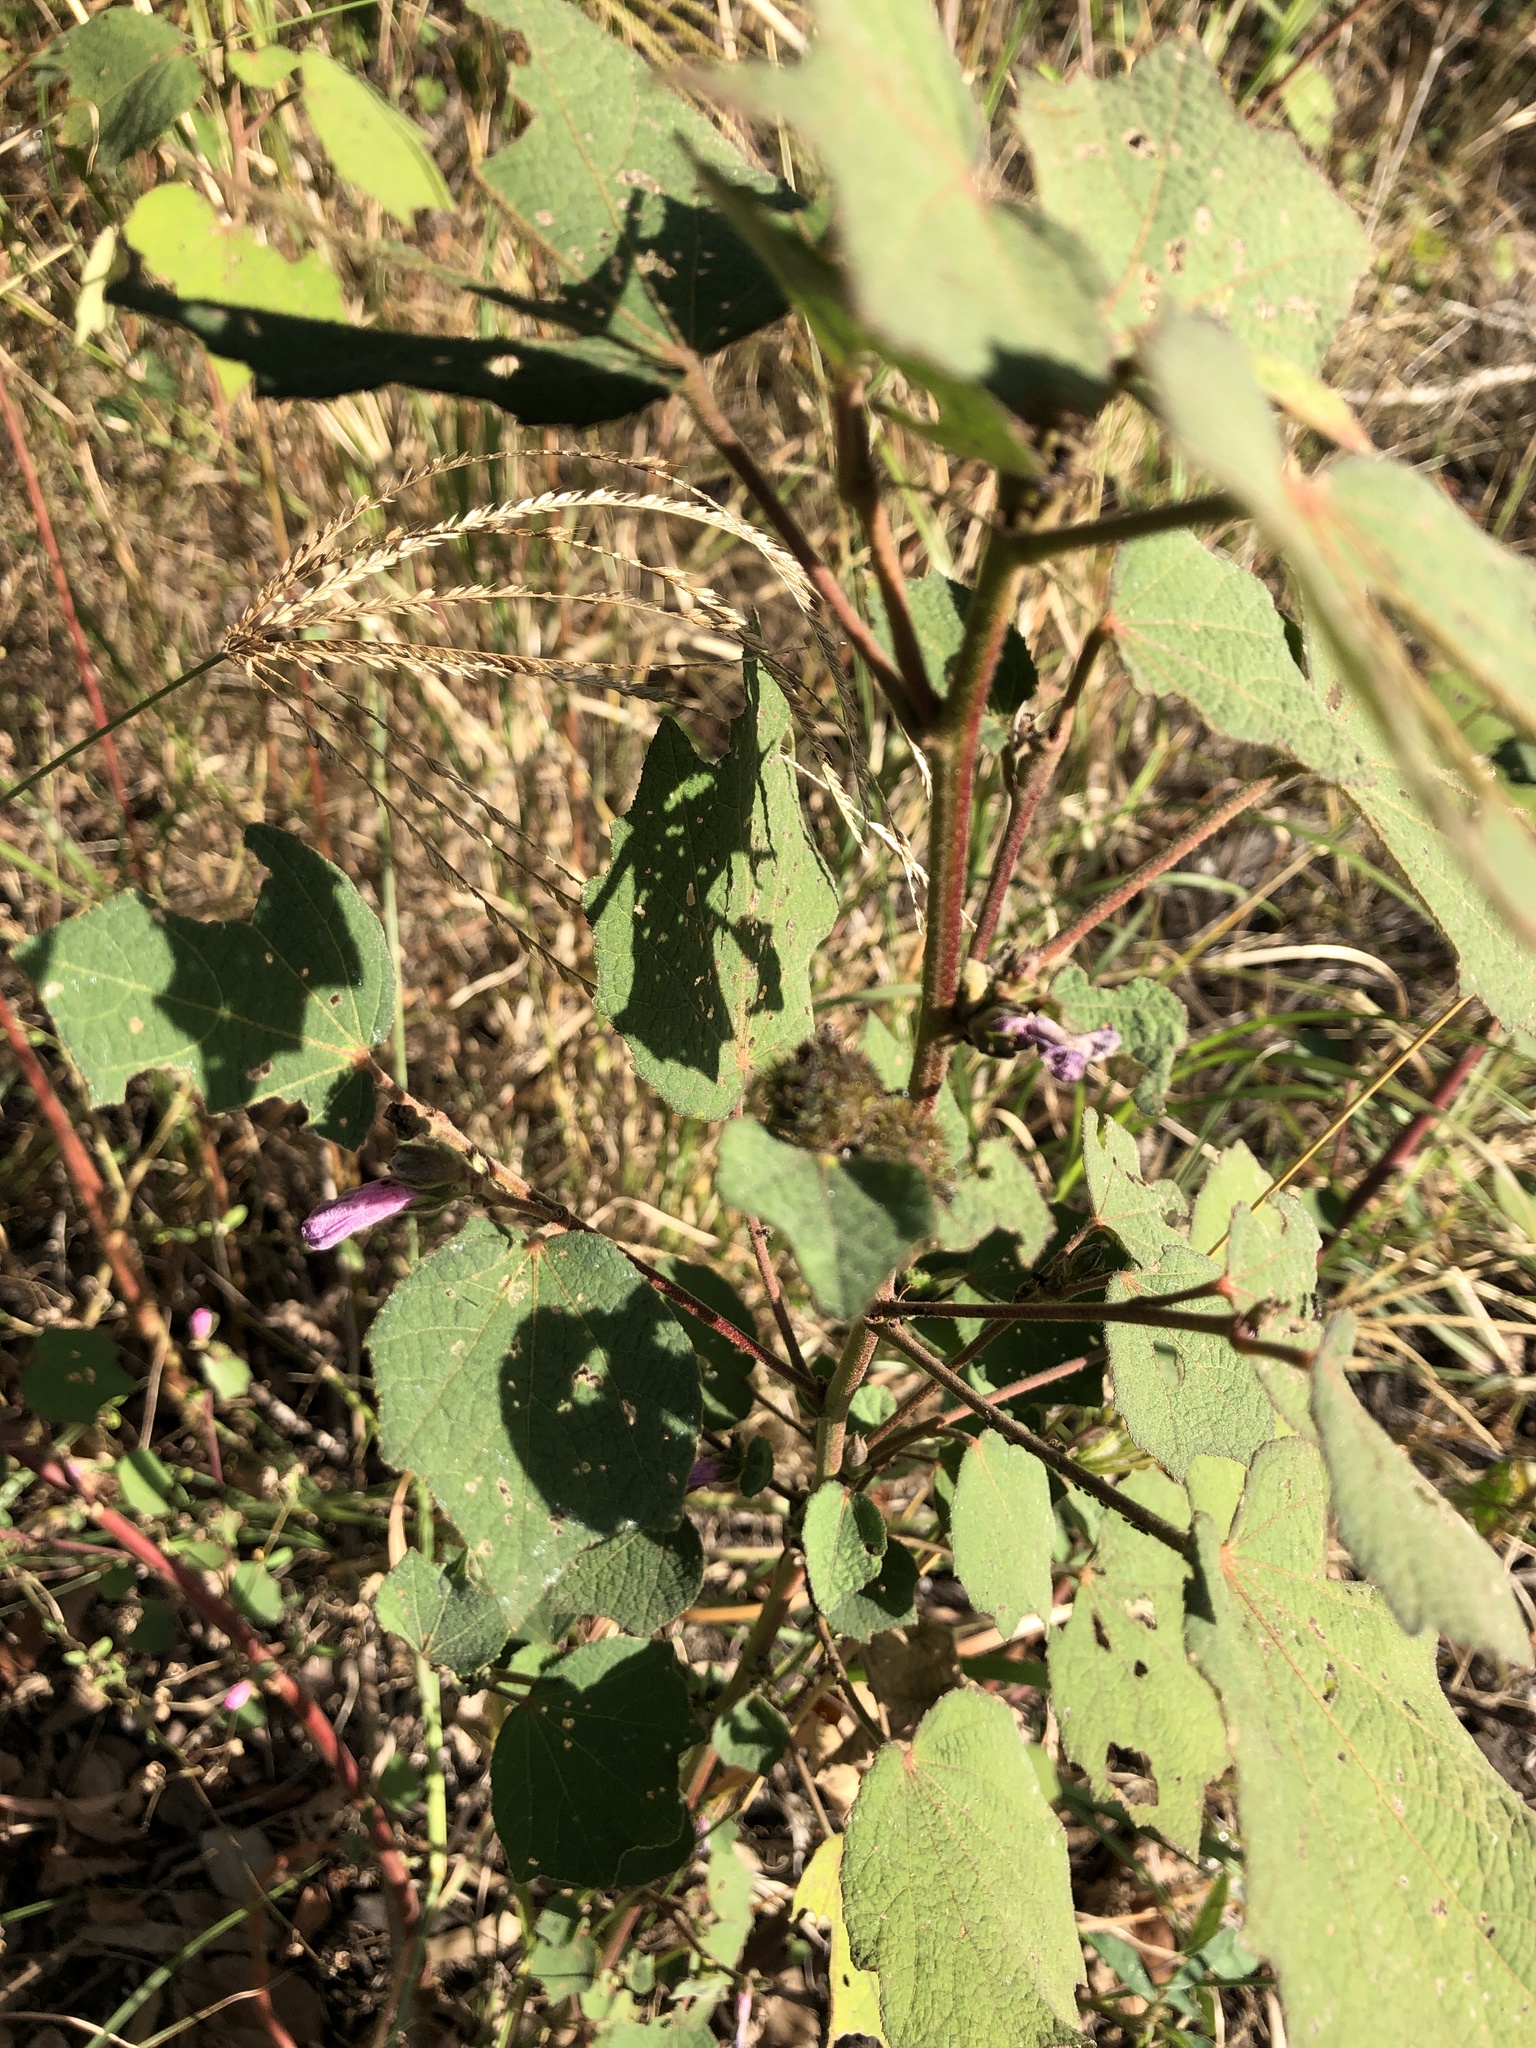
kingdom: Plantae
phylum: Tracheophyta
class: Magnoliopsida
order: Malvales
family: Malvaceae
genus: Urena
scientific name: Urena lobata
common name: Caesarweed
